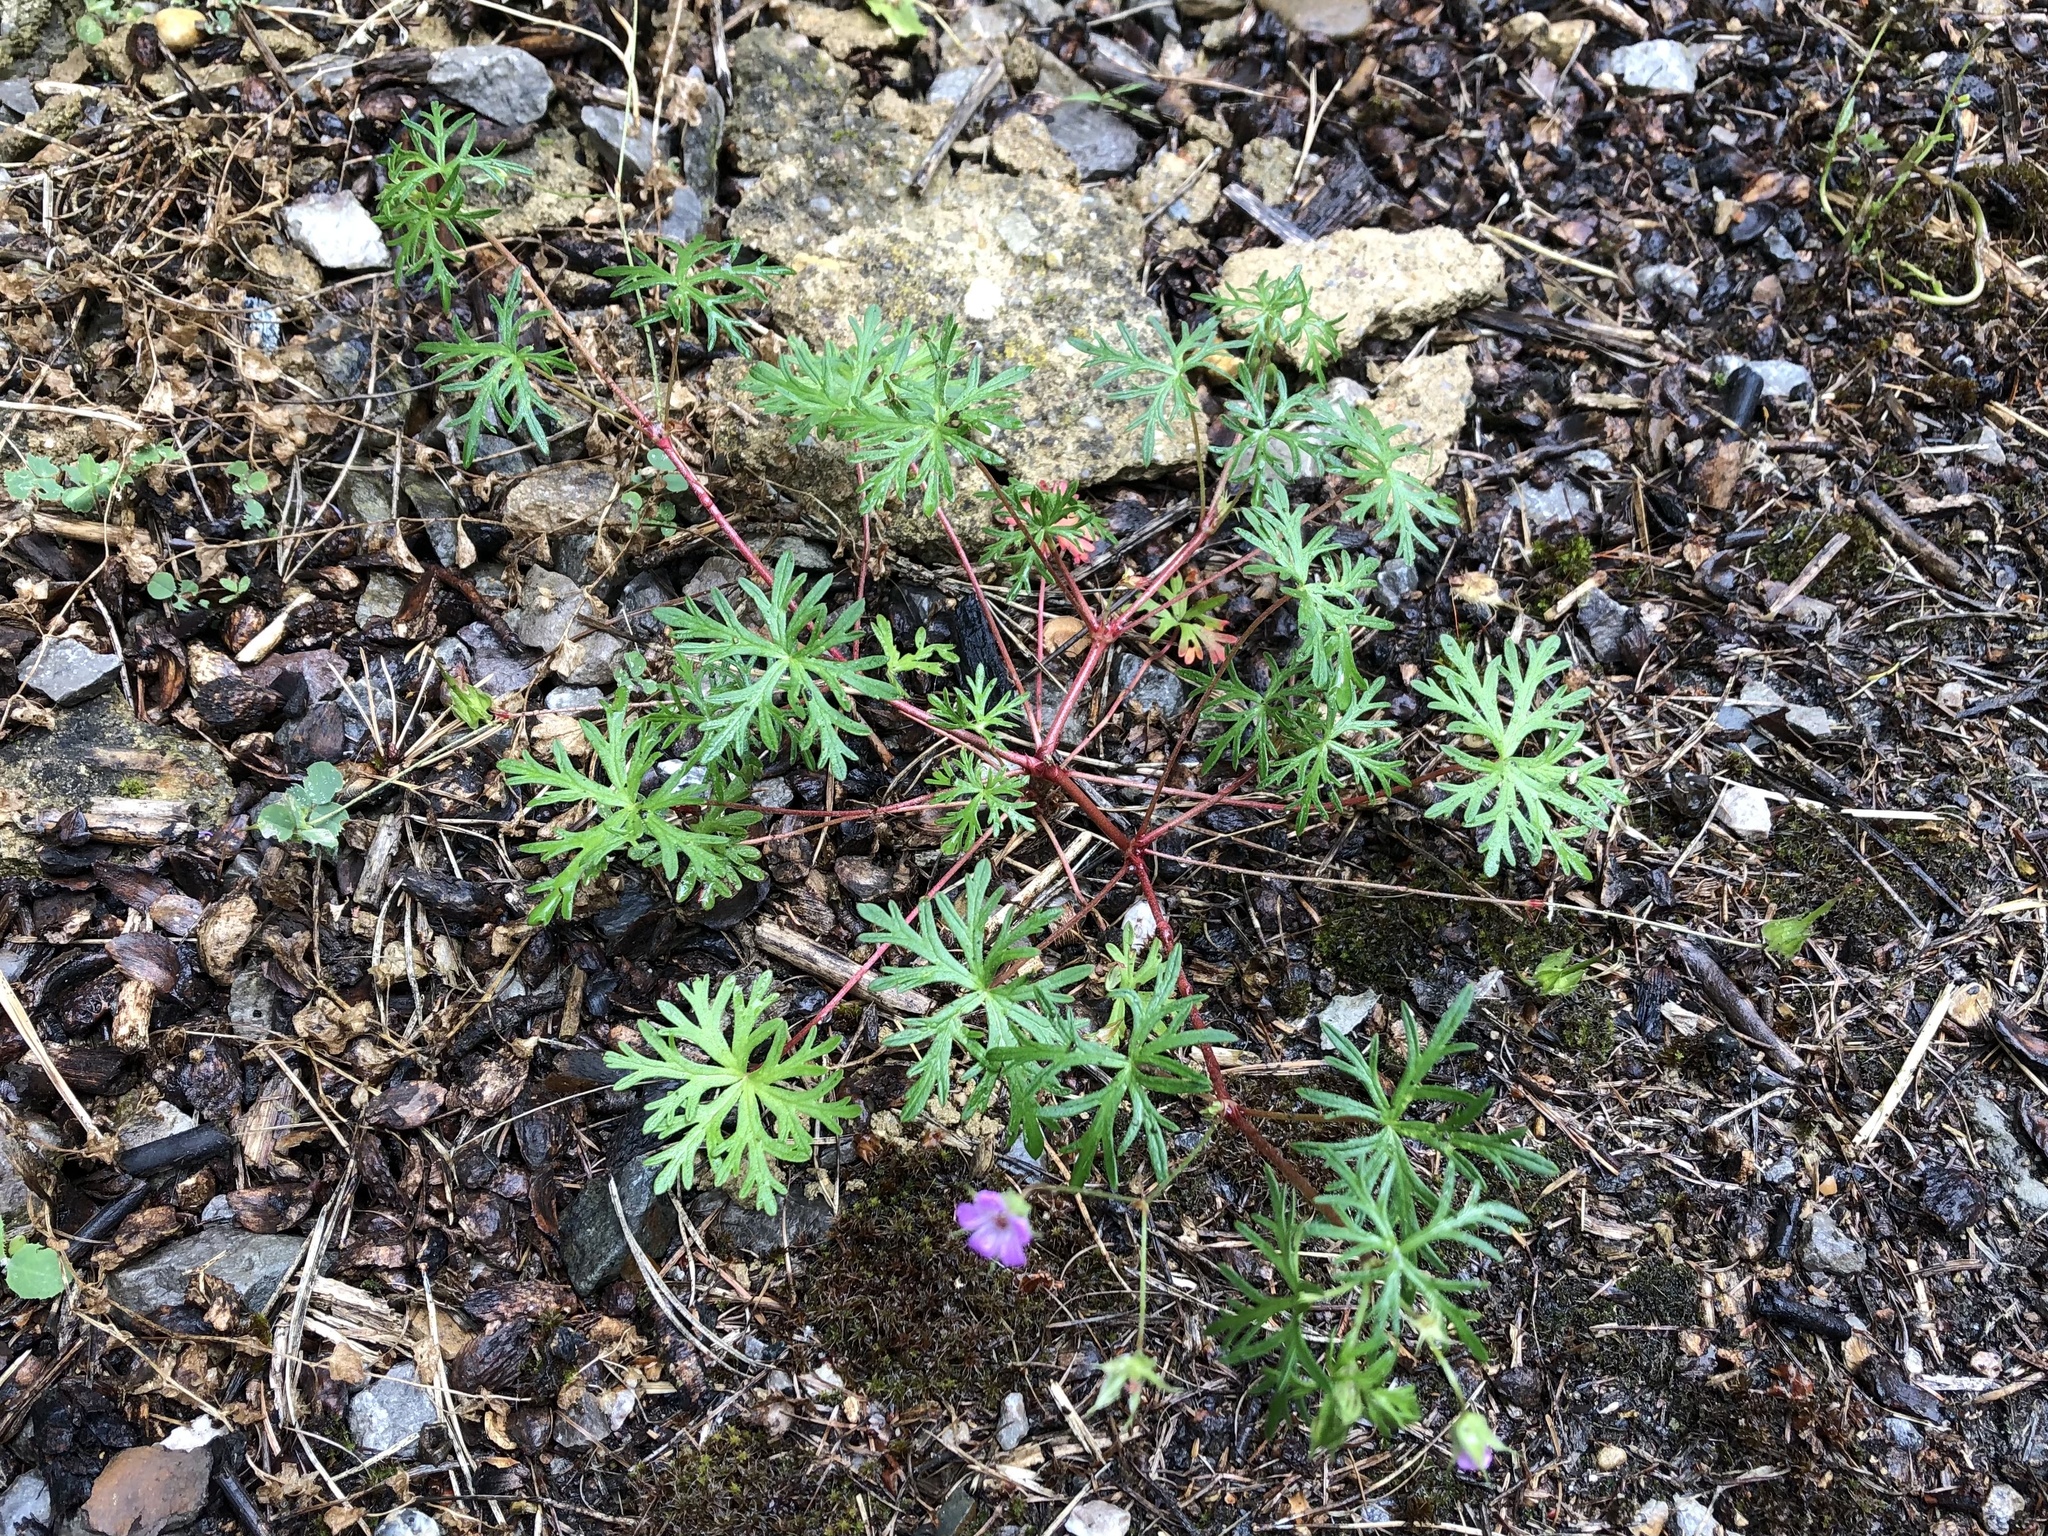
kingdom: Plantae
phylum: Tracheophyta
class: Magnoliopsida
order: Geraniales
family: Geraniaceae
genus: Geranium
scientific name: Geranium columbinum
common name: Long-stalked crane's-bill
